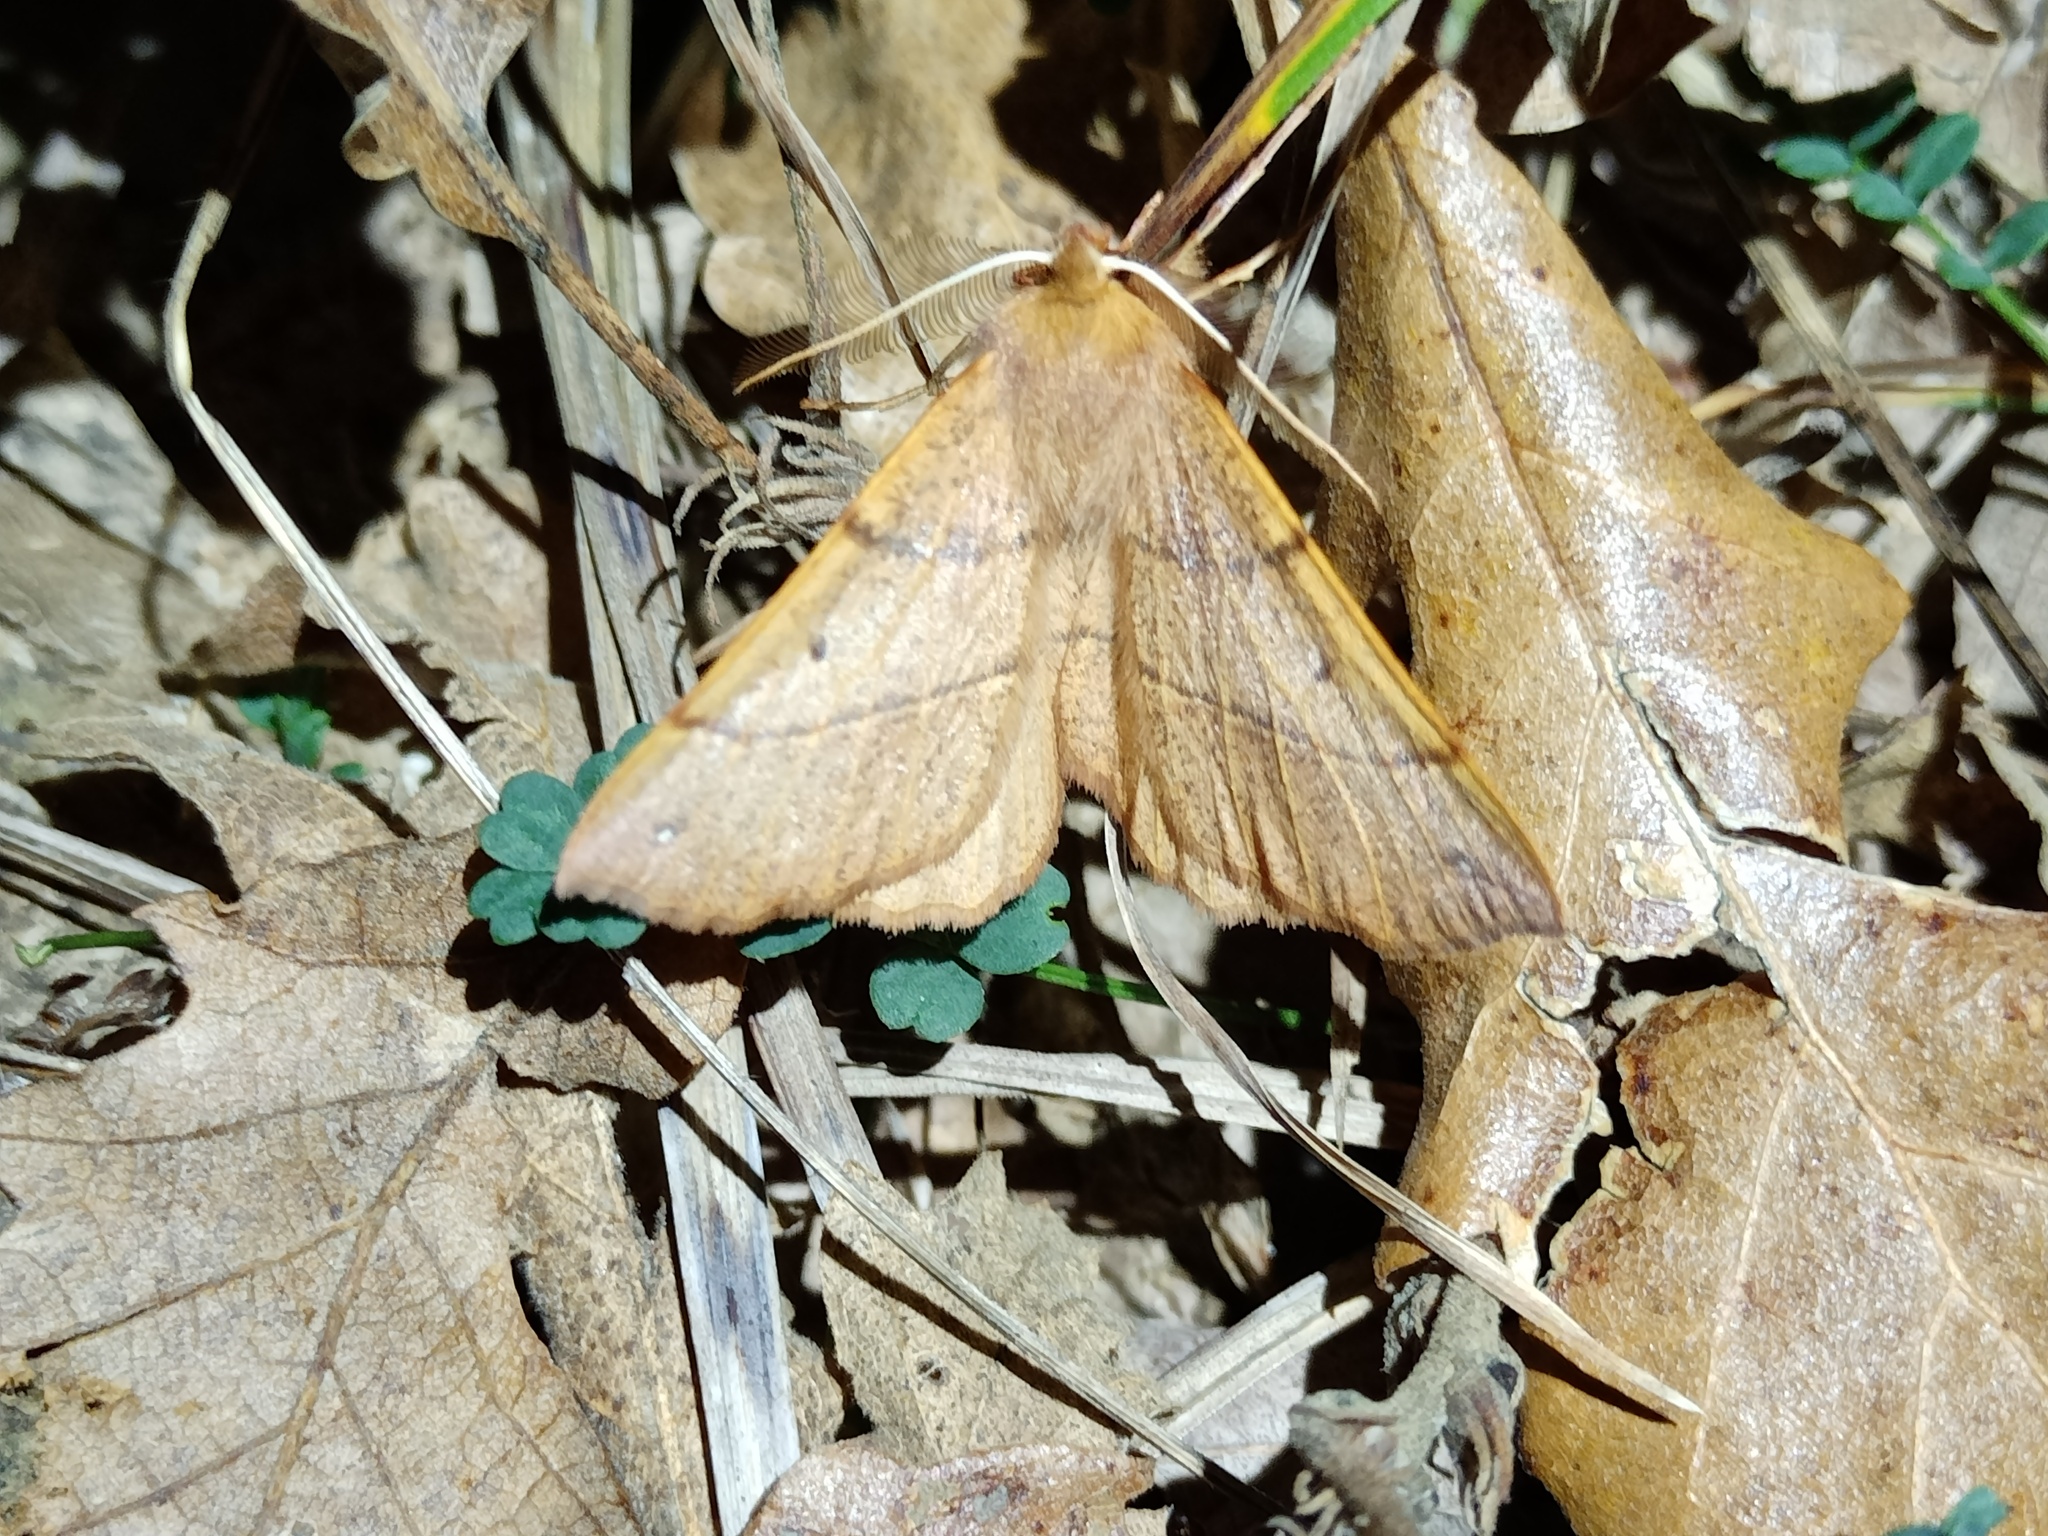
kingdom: Animalia
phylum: Arthropoda
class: Insecta
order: Lepidoptera
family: Geometridae
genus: Colotois
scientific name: Colotois pennaria
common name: Feathered thorn
